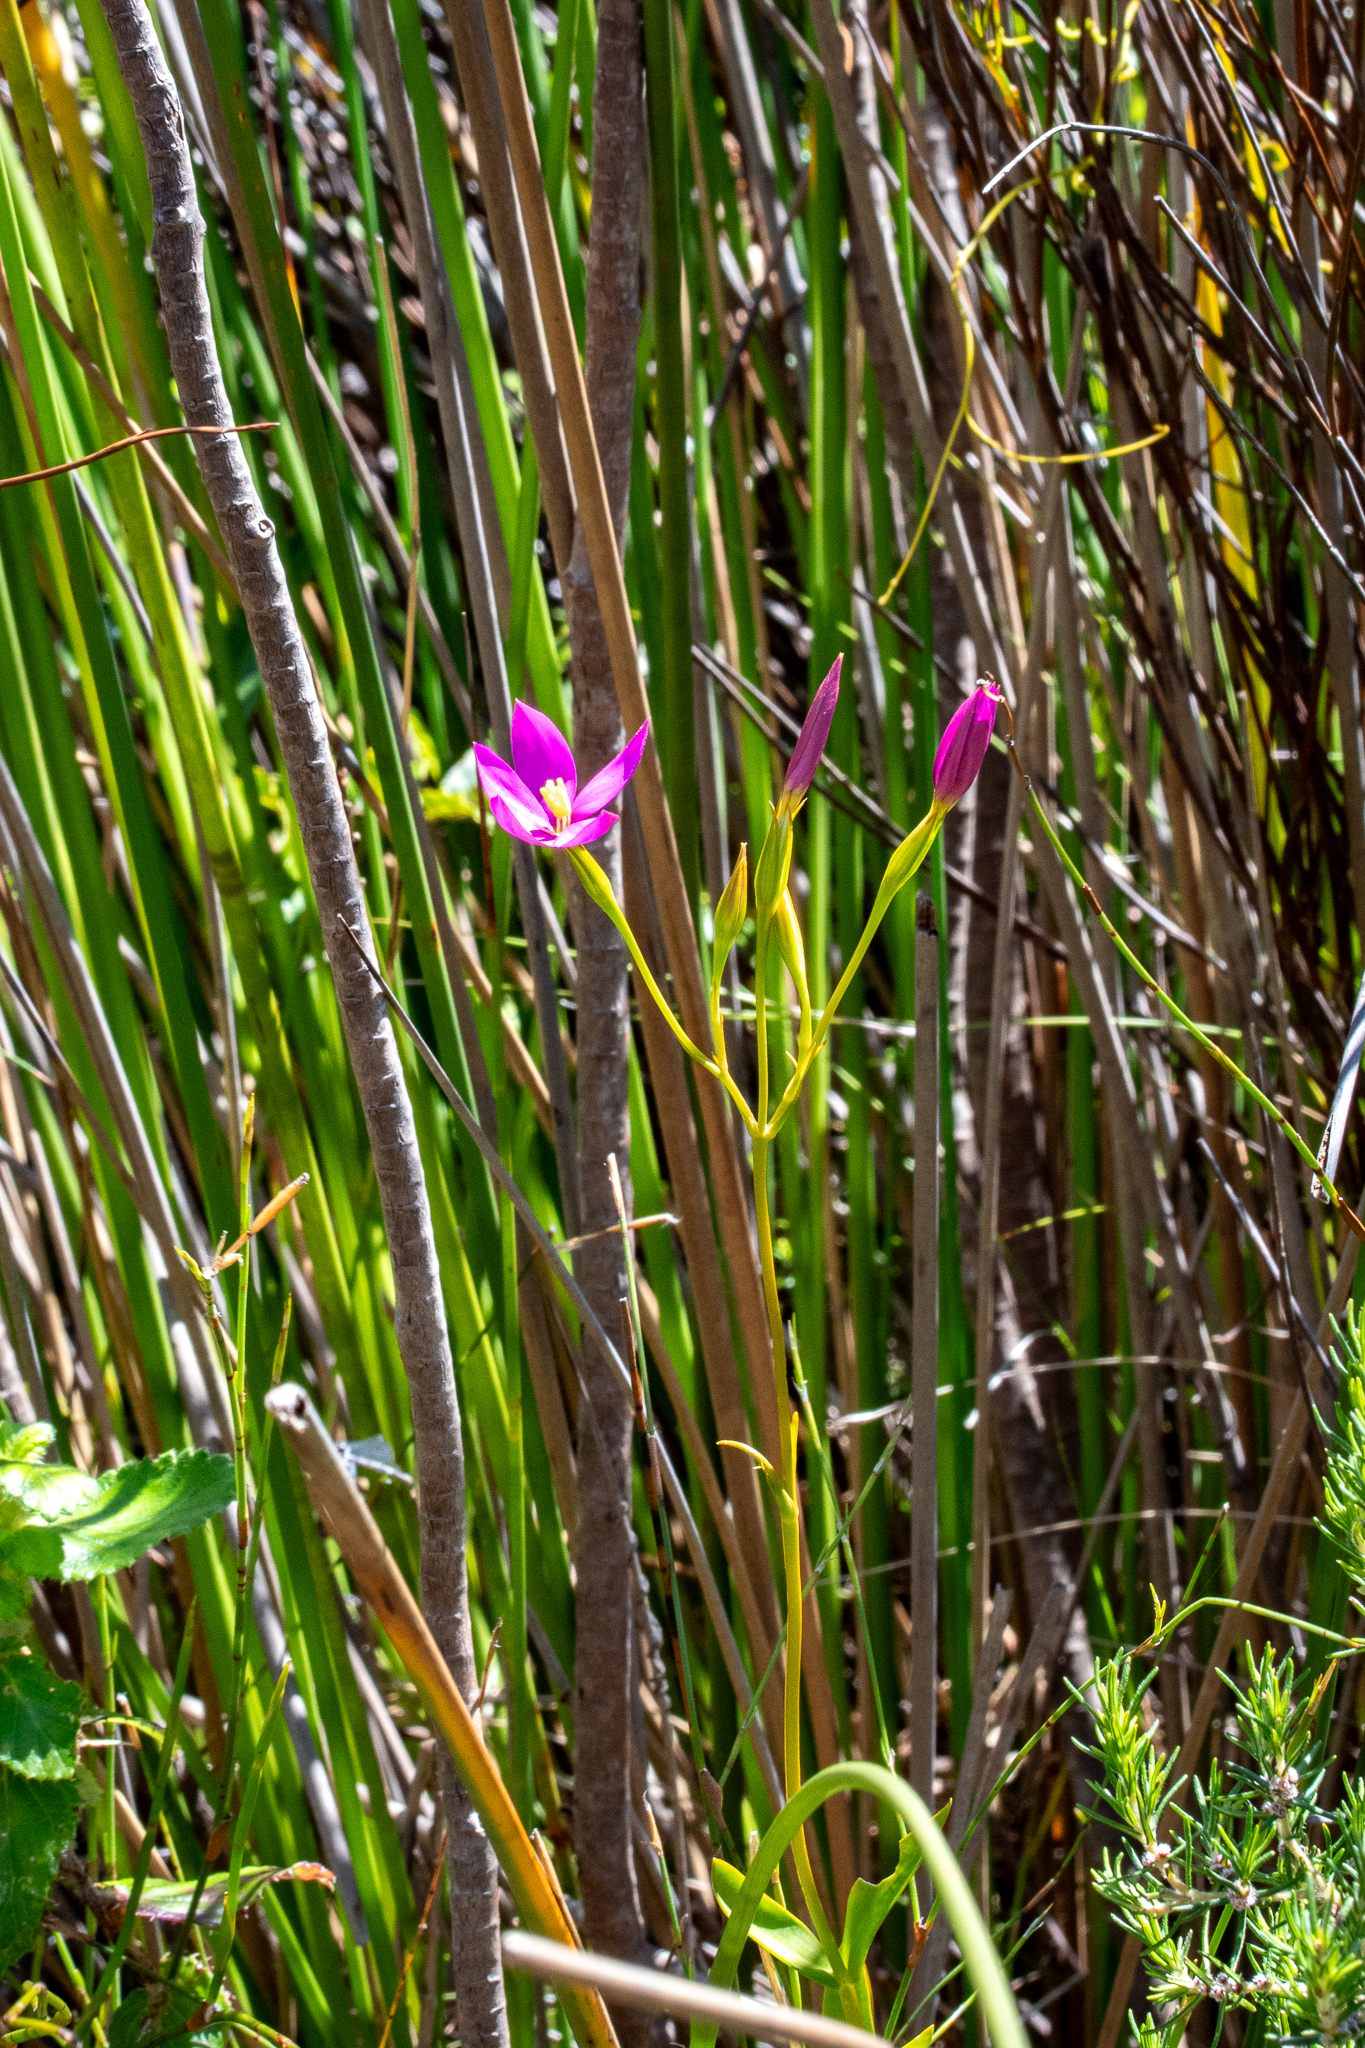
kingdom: Plantae
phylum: Tracheophyta
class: Magnoliopsida
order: Gentianales
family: Gentianaceae
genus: Chironia
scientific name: Chironia jasminoides
